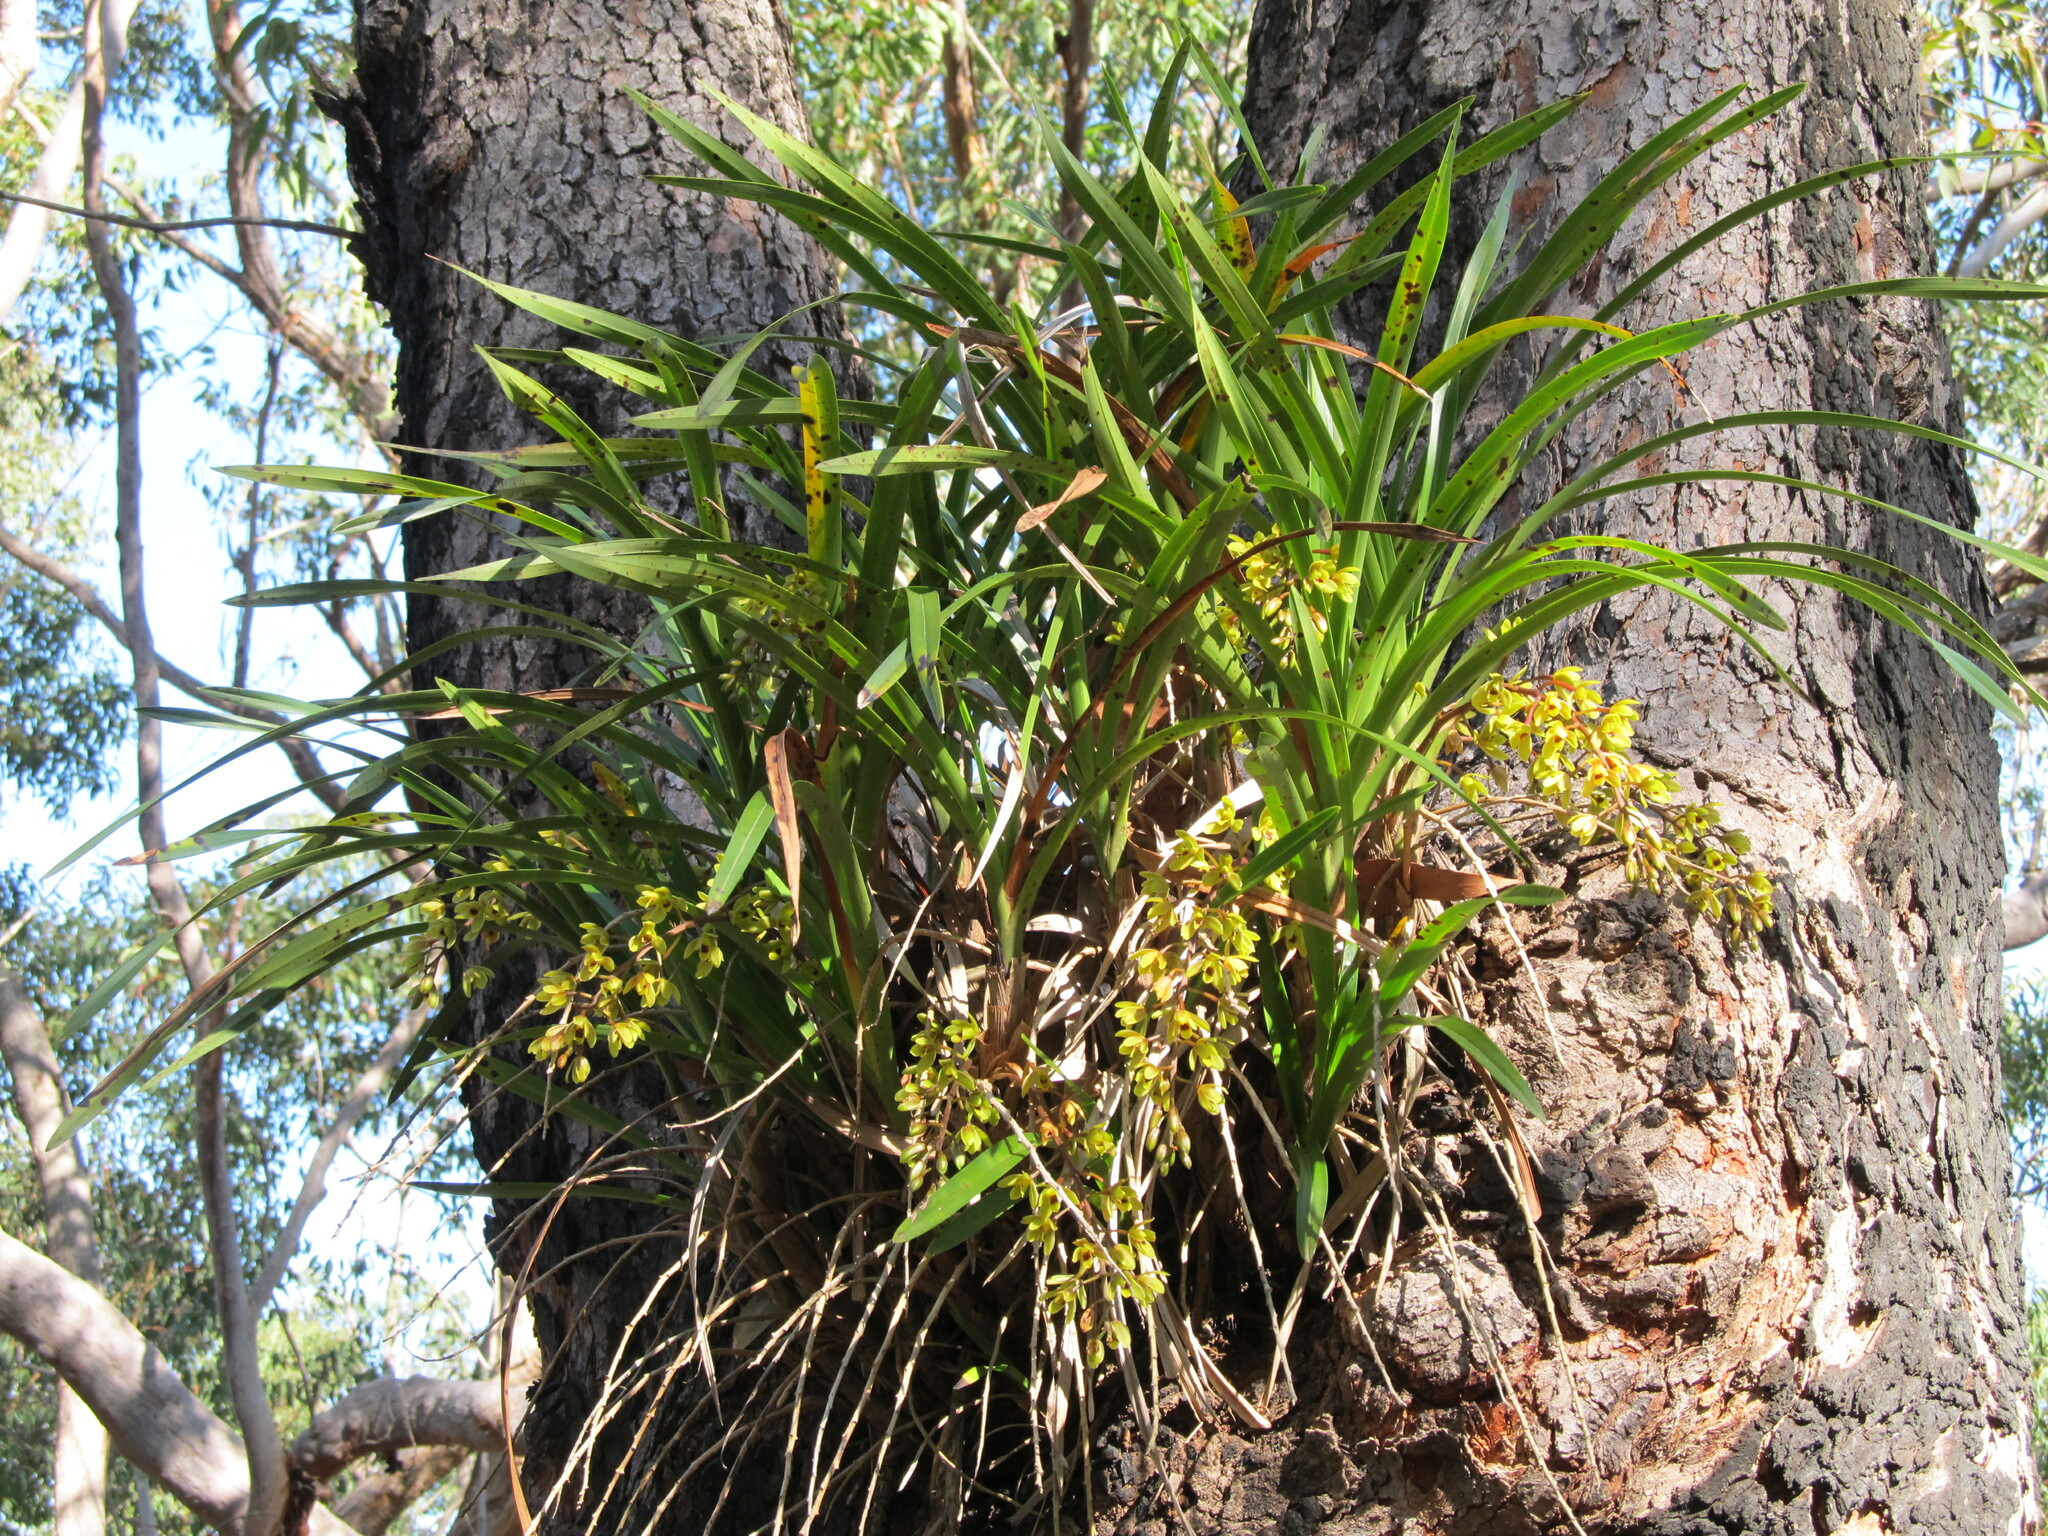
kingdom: Plantae
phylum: Tracheophyta
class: Liliopsida
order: Asparagales
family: Orchidaceae
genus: Cymbidium
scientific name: Cymbidium suave
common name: Snake orchid
